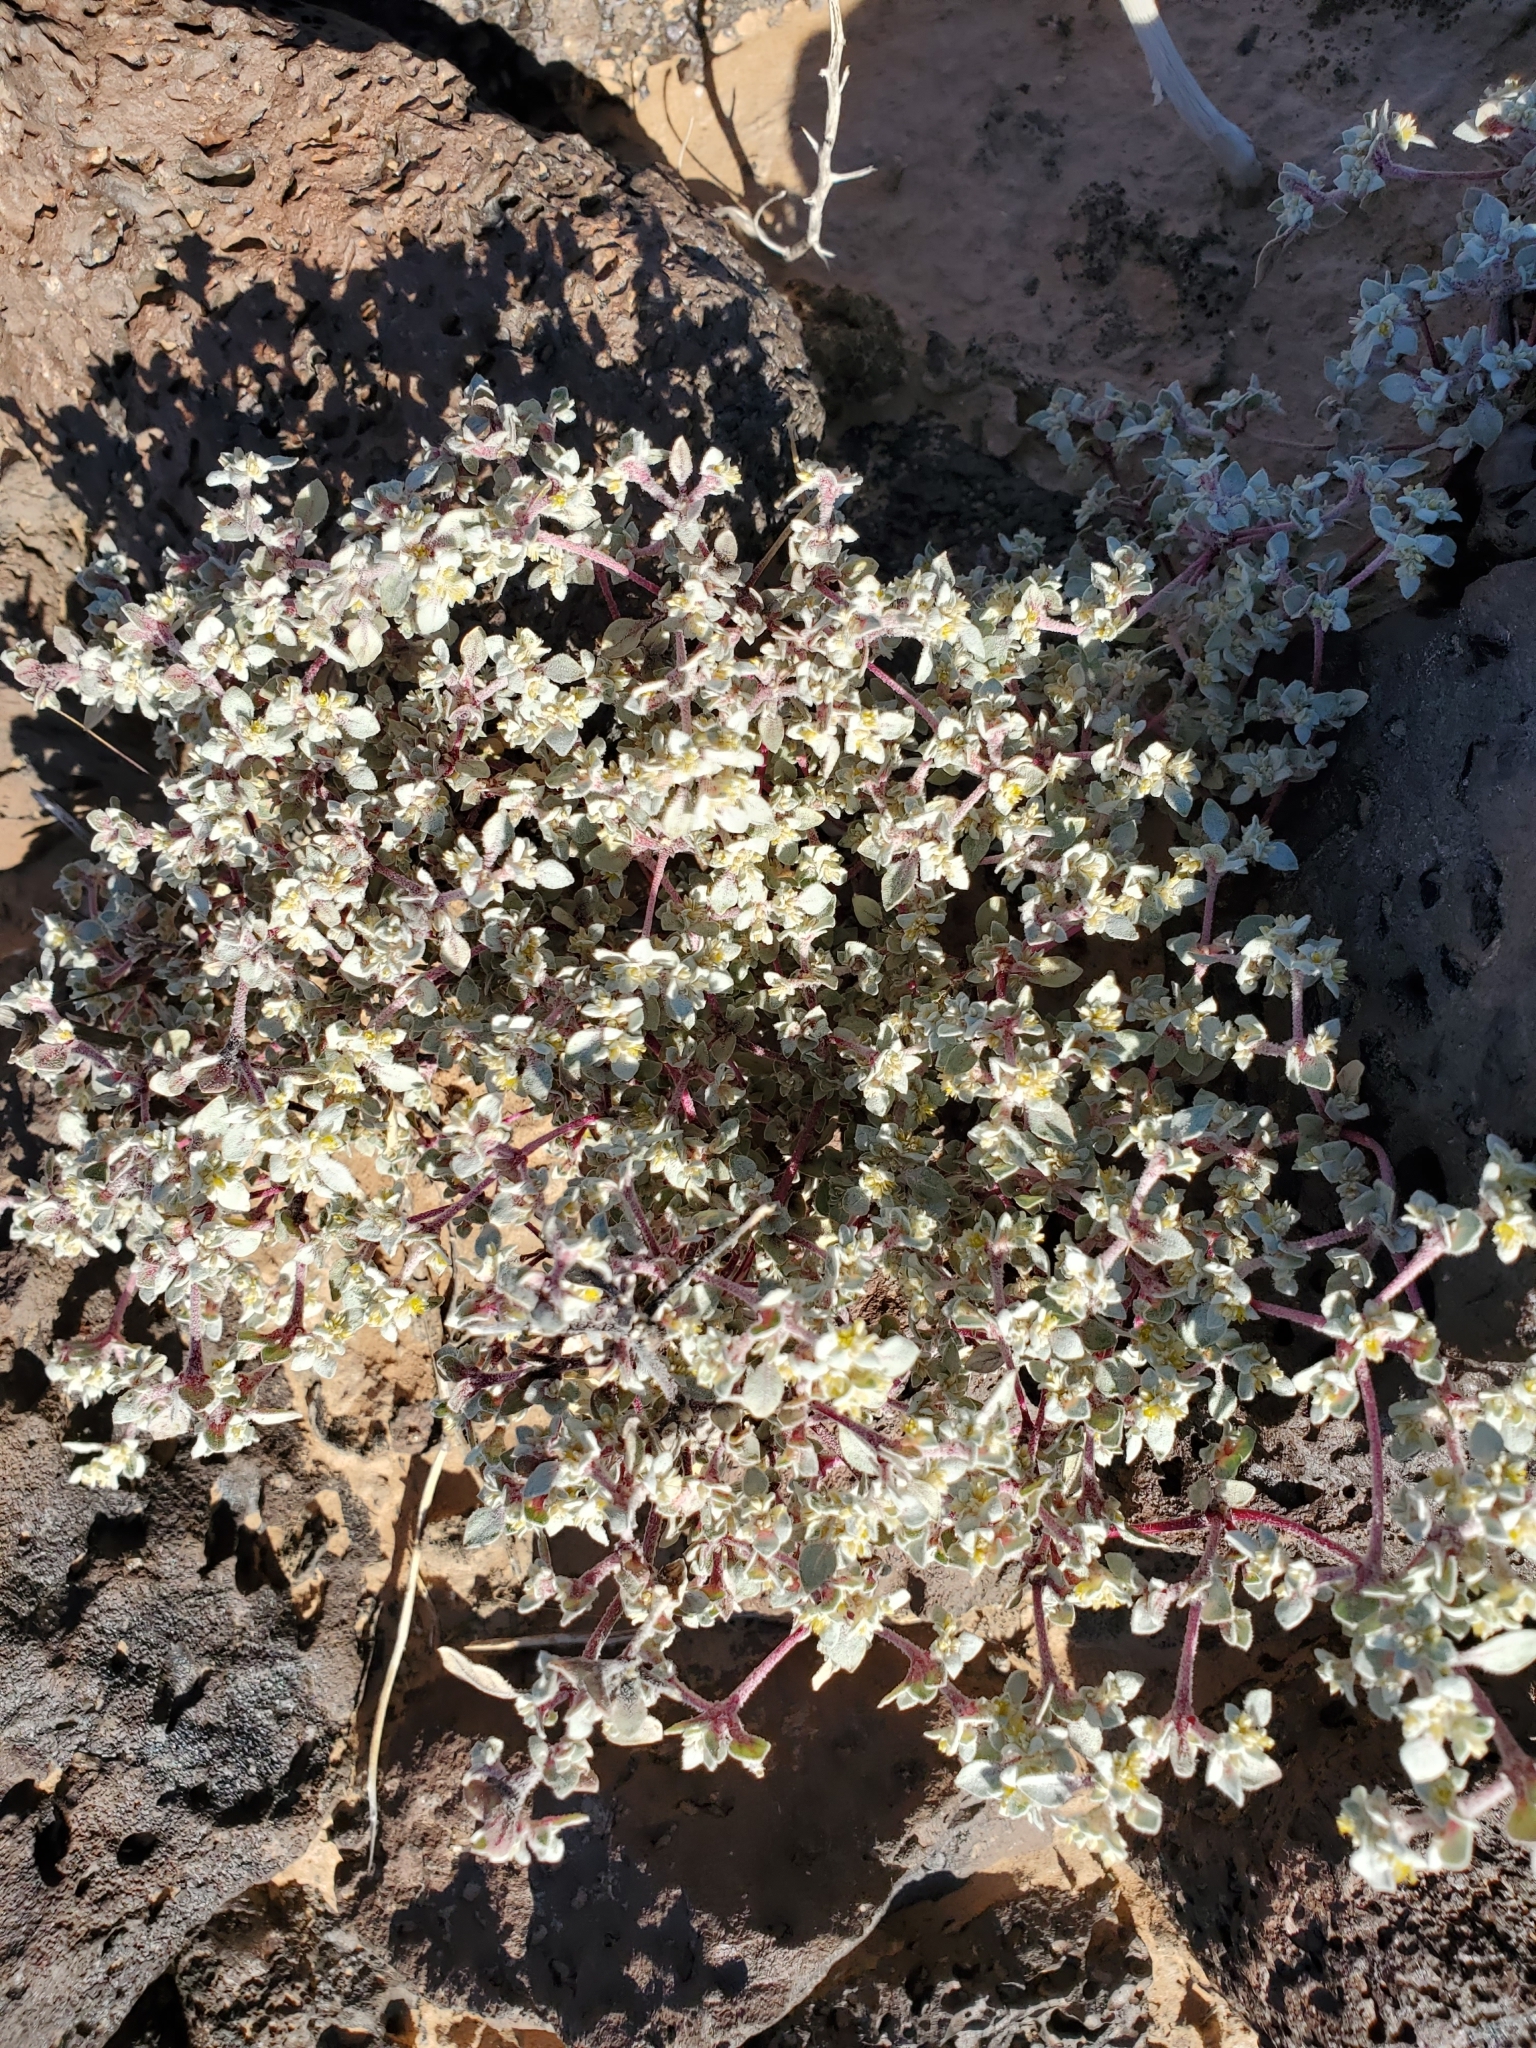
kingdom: Plantae
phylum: Tracheophyta
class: Magnoliopsida
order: Caryophyllales
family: Amaranthaceae
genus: Tidestromia
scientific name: Tidestromia lanuginosa
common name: Woolly tidestromia
